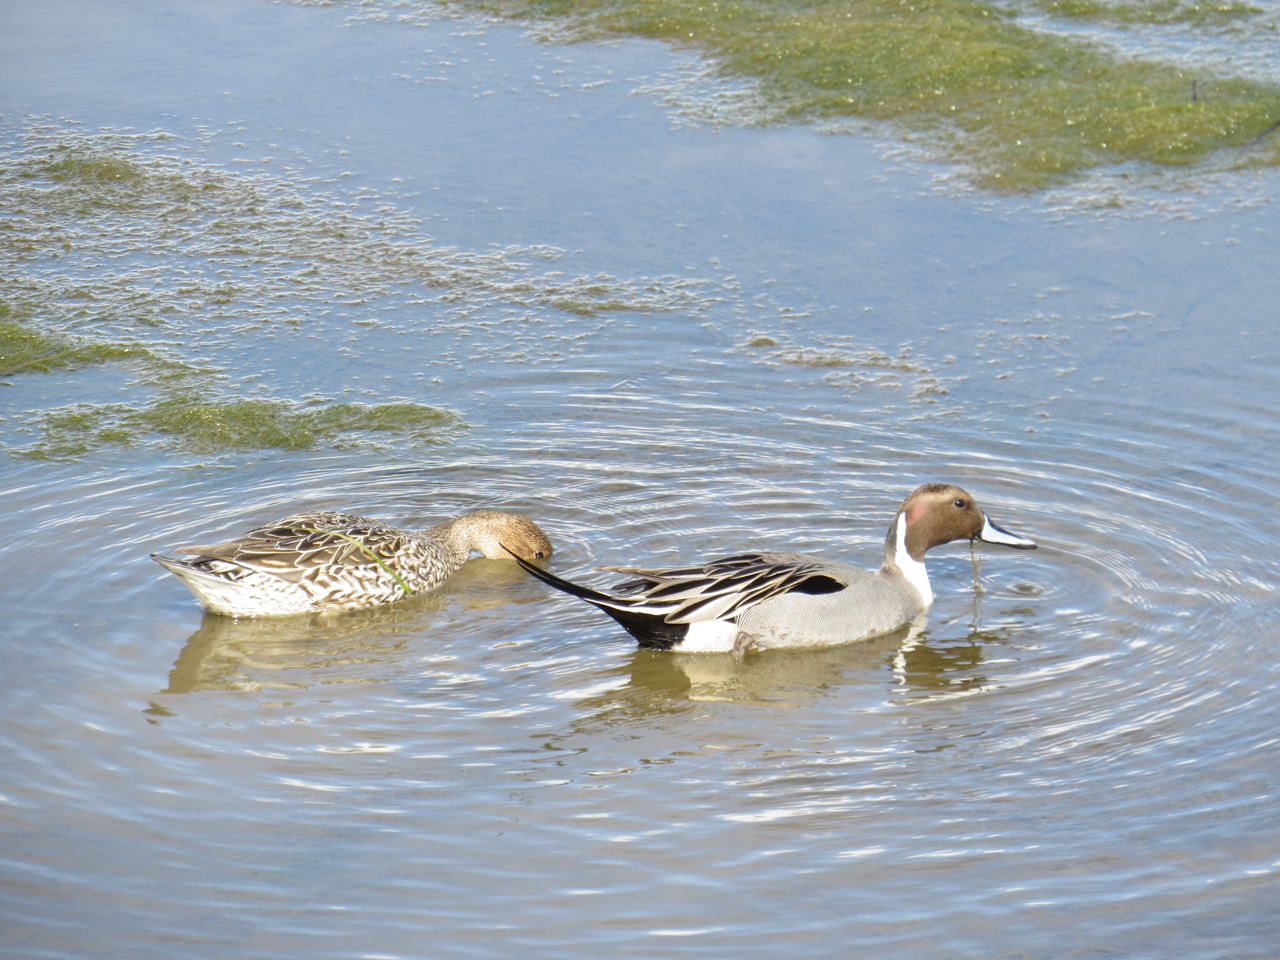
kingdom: Animalia
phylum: Chordata
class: Aves
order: Anseriformes
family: Anatidae
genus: Anas
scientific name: Anas acuta
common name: Northern pintail
